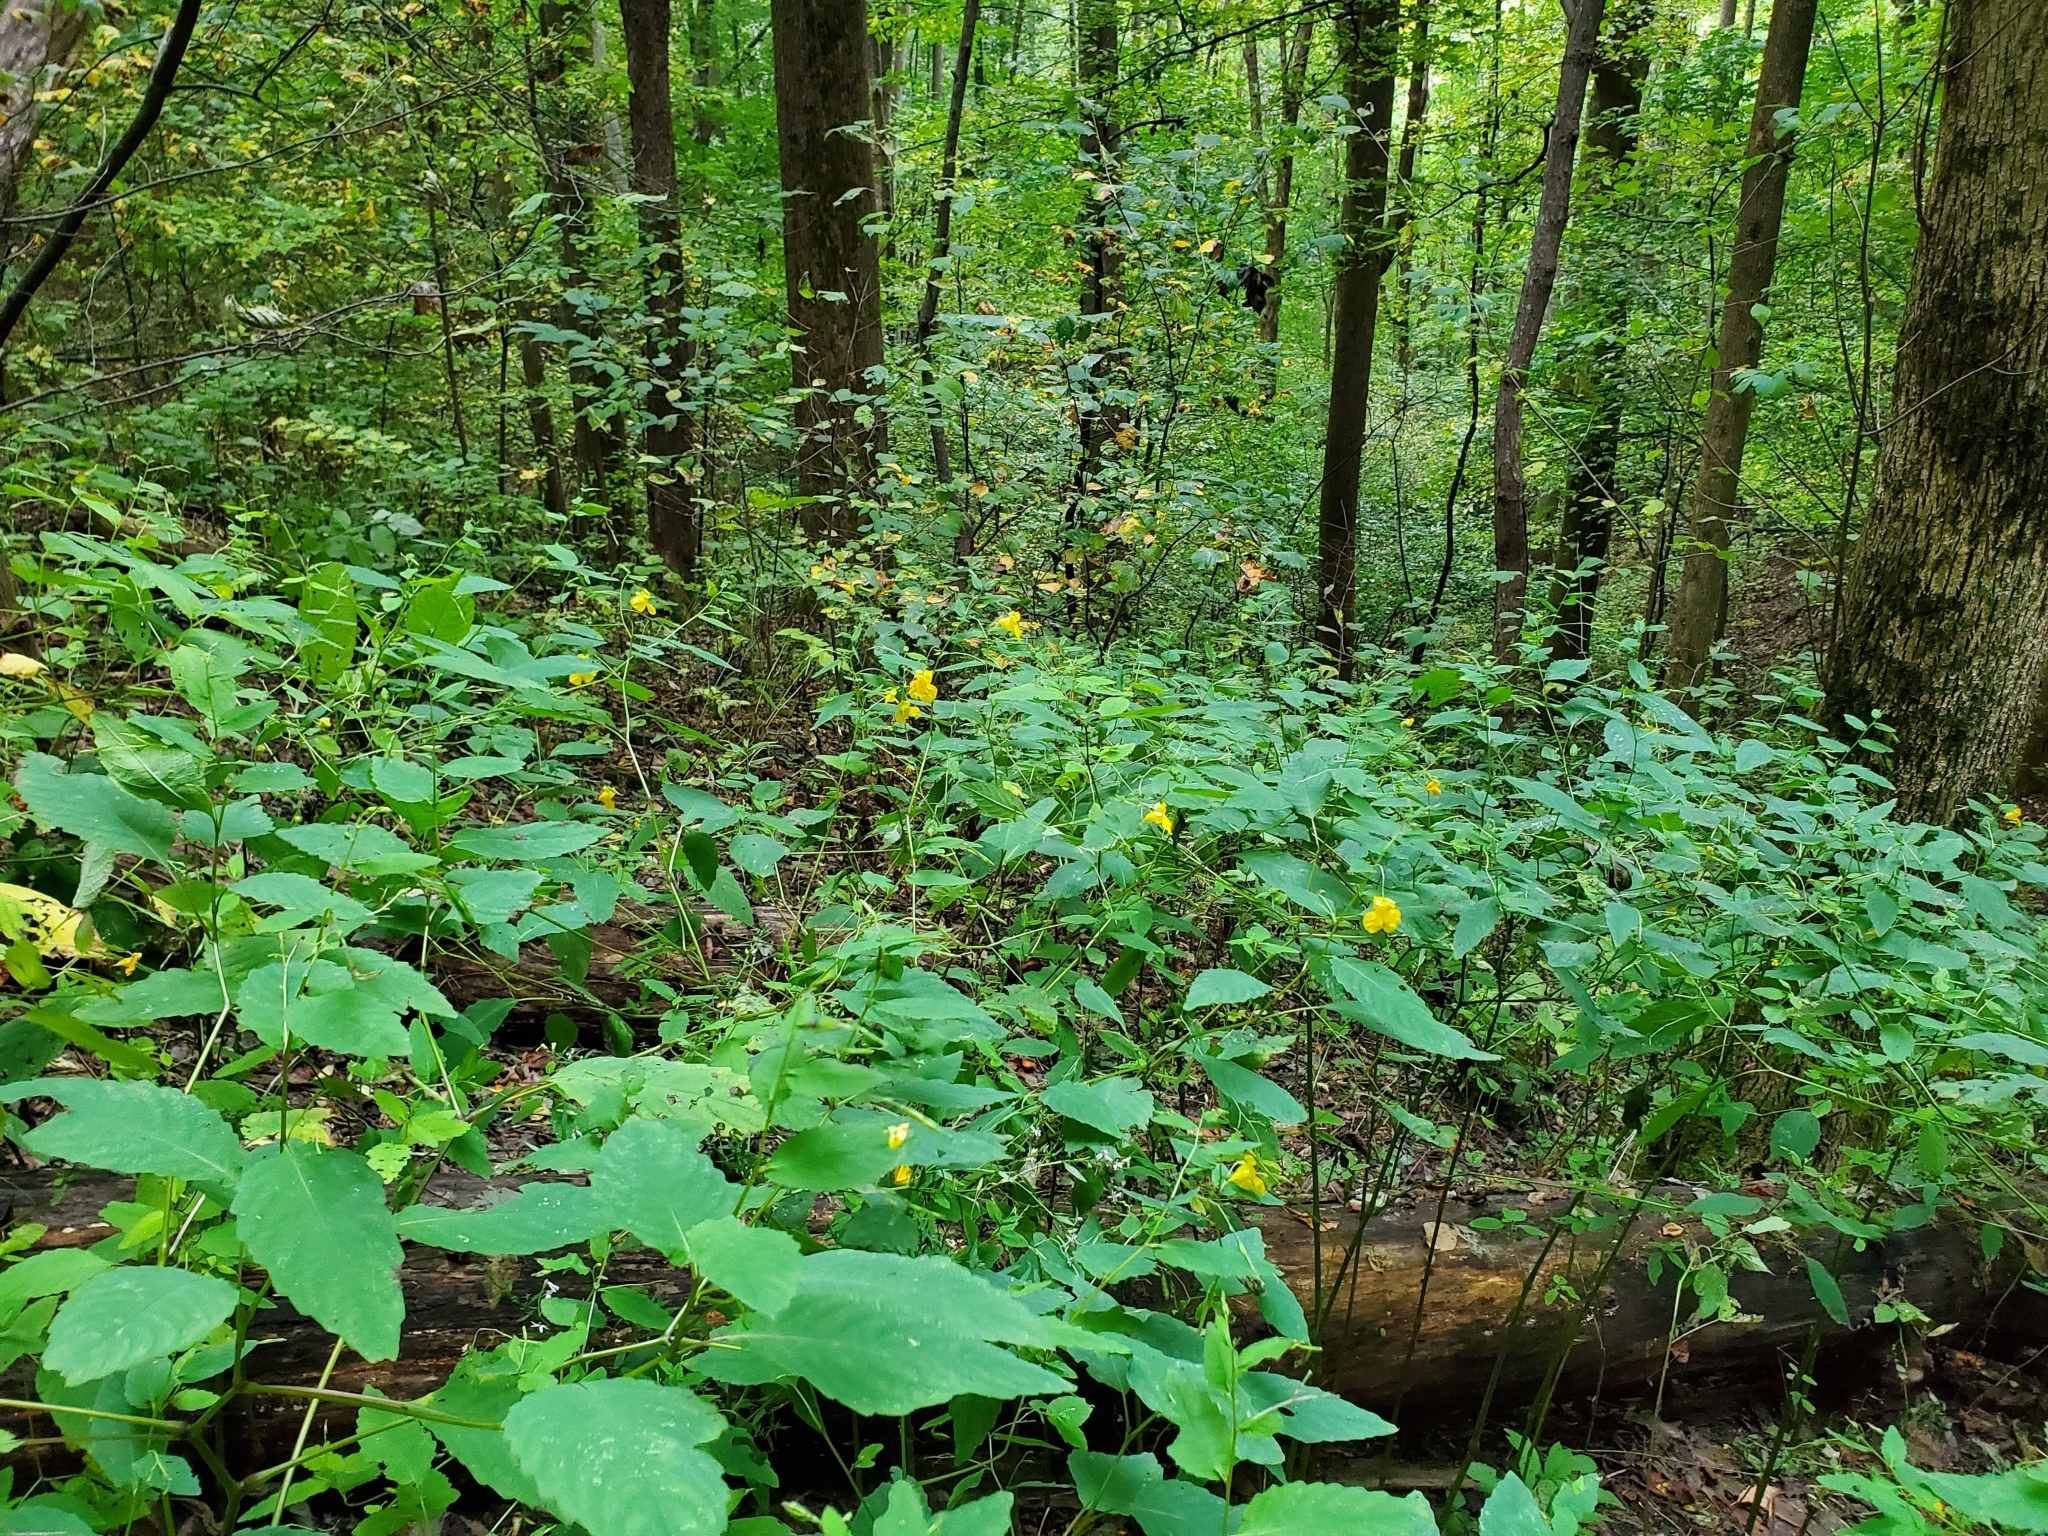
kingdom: Plantae
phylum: Tracheophyta
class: Magnoliopsida
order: Ericales
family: Balsaminaceae
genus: Impatiens
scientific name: Impatiens pallida
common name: Pale snapweed
